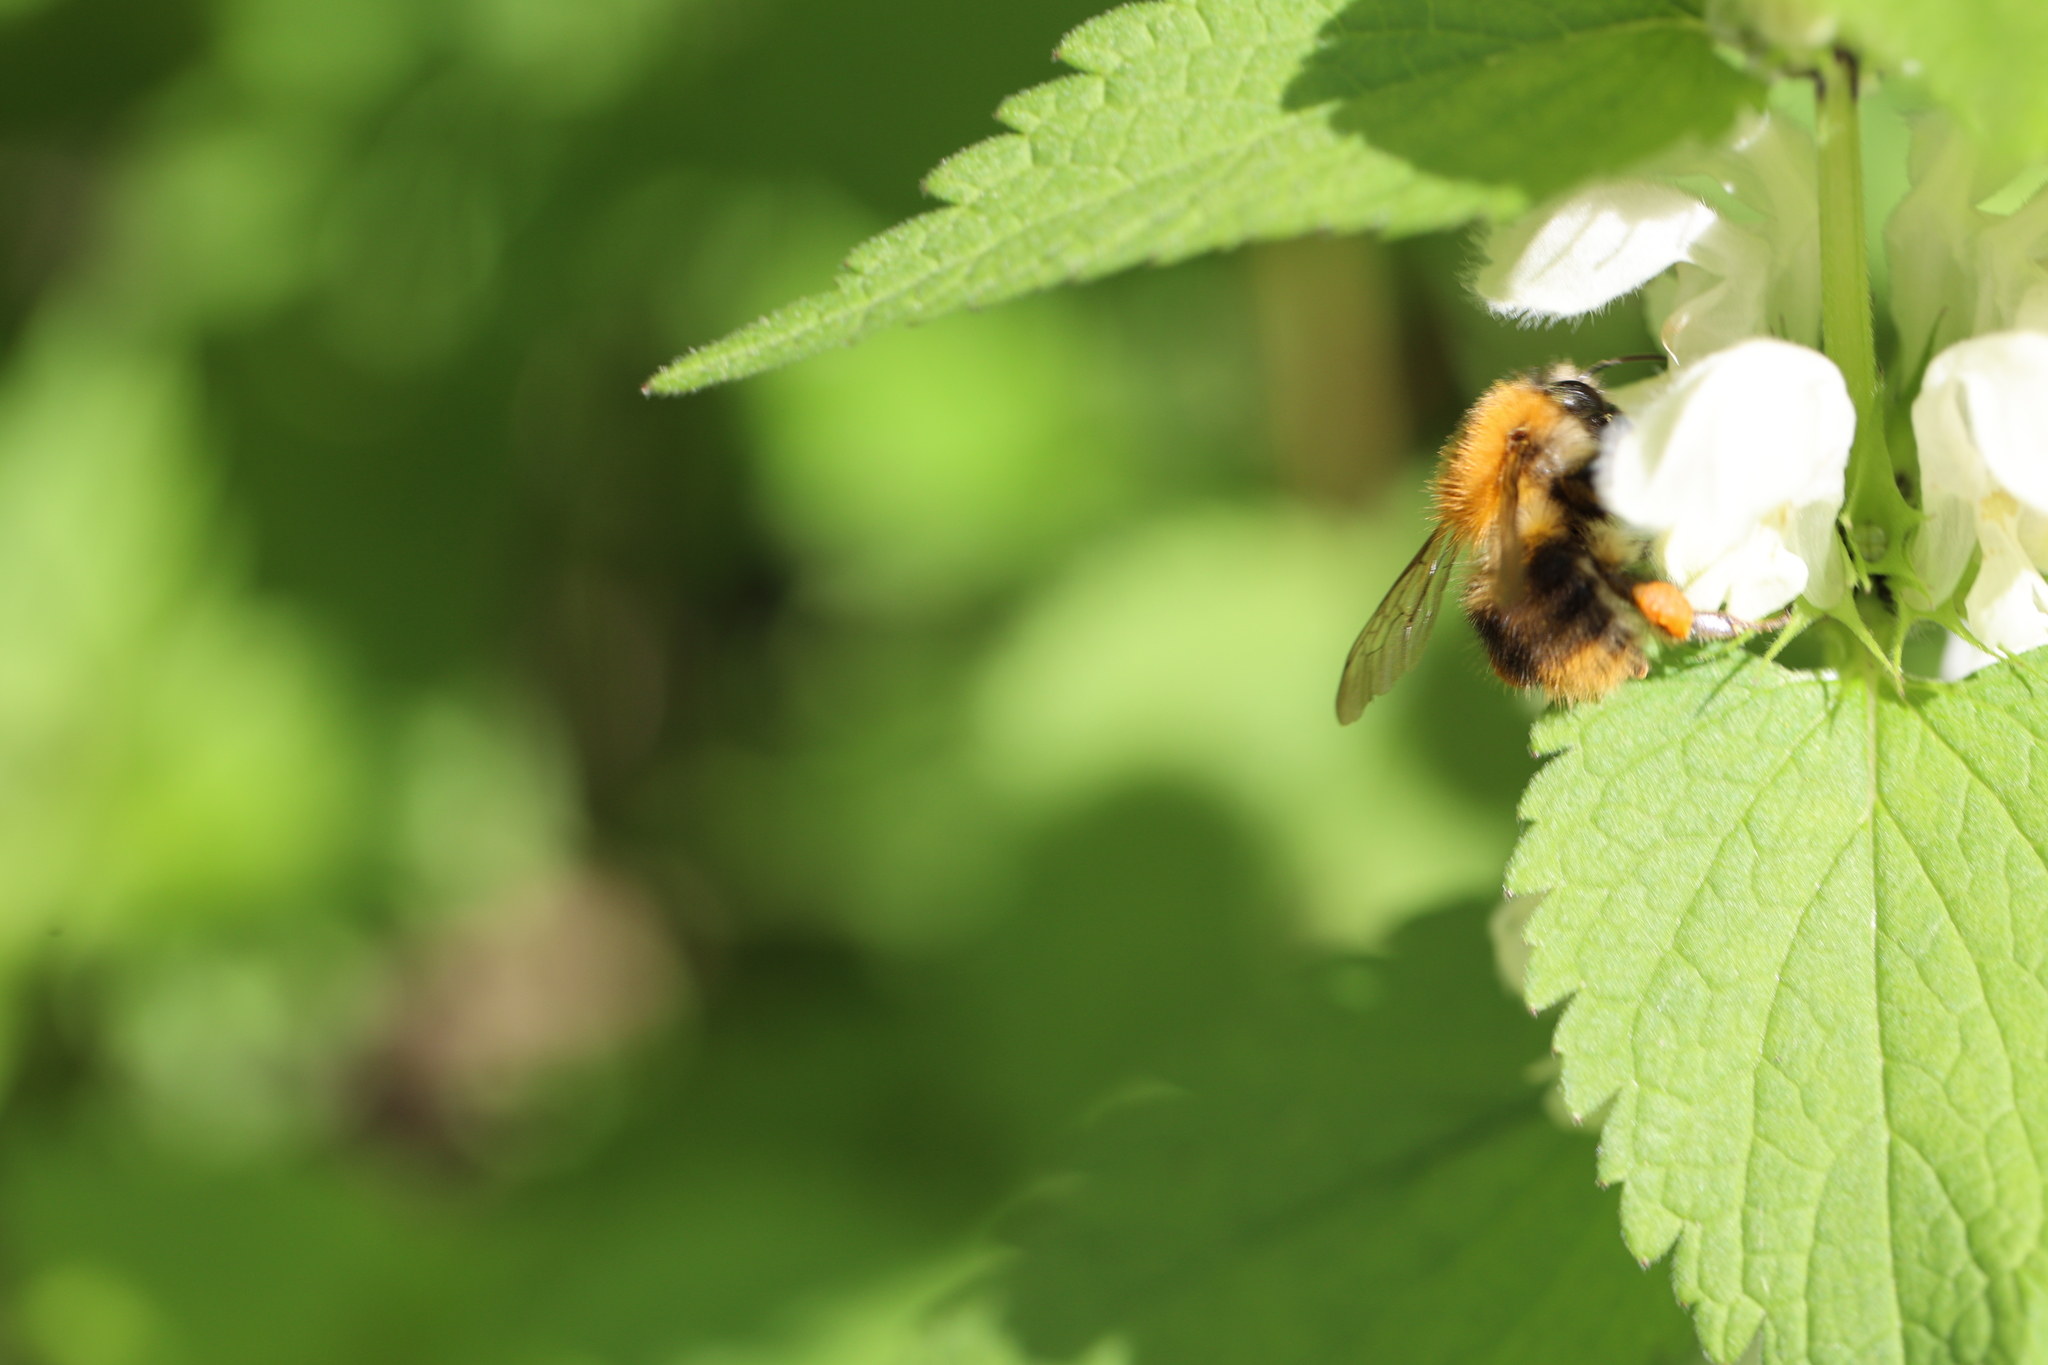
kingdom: Animalia
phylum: Arthropoda
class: Insecta
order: Hymenoptera
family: Apidae
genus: Bombus
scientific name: Bombus pascuorum
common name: Common carder bee
